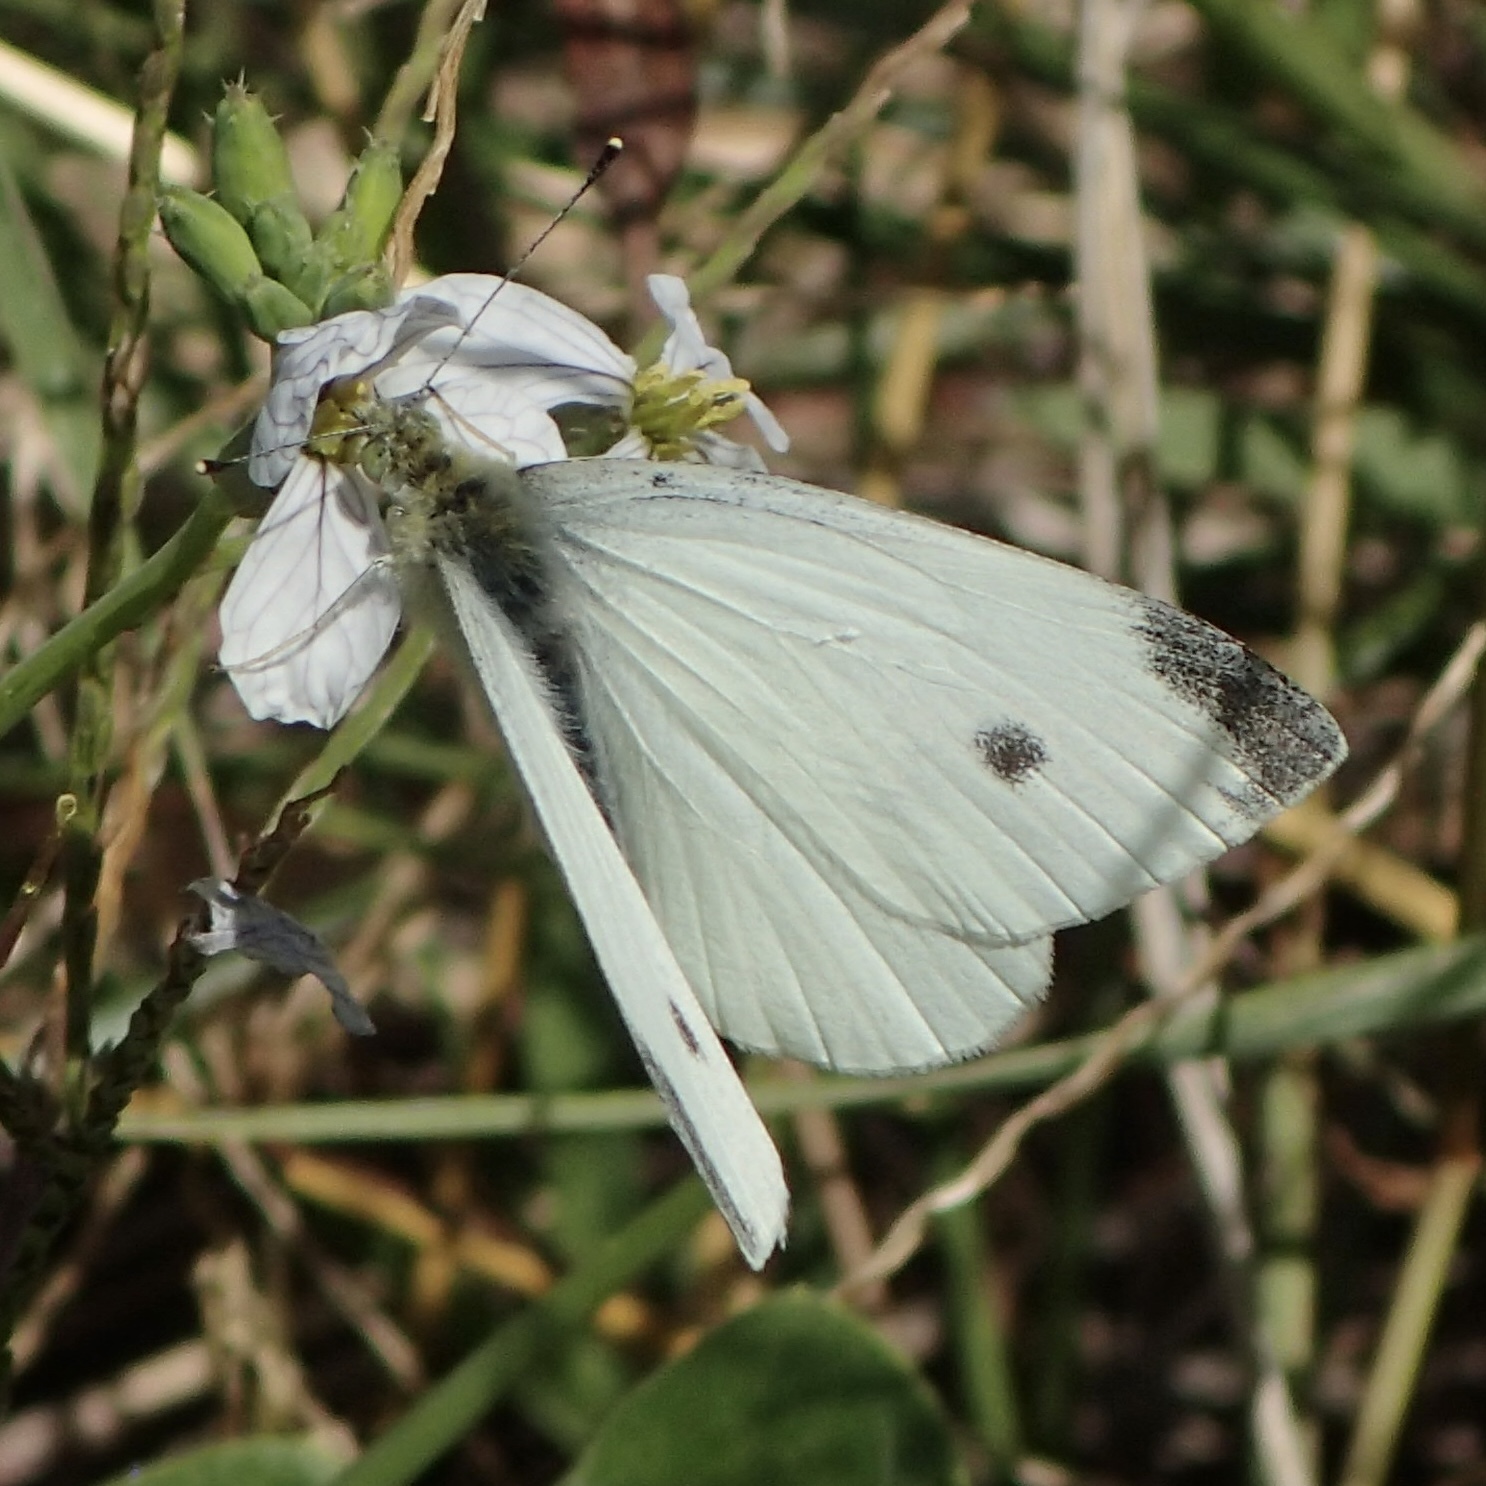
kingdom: Animalia
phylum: Arthropoda
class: Insecta
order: Lepidoptera
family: Pieridae
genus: Pieris
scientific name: Pieris rapae
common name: Small white
